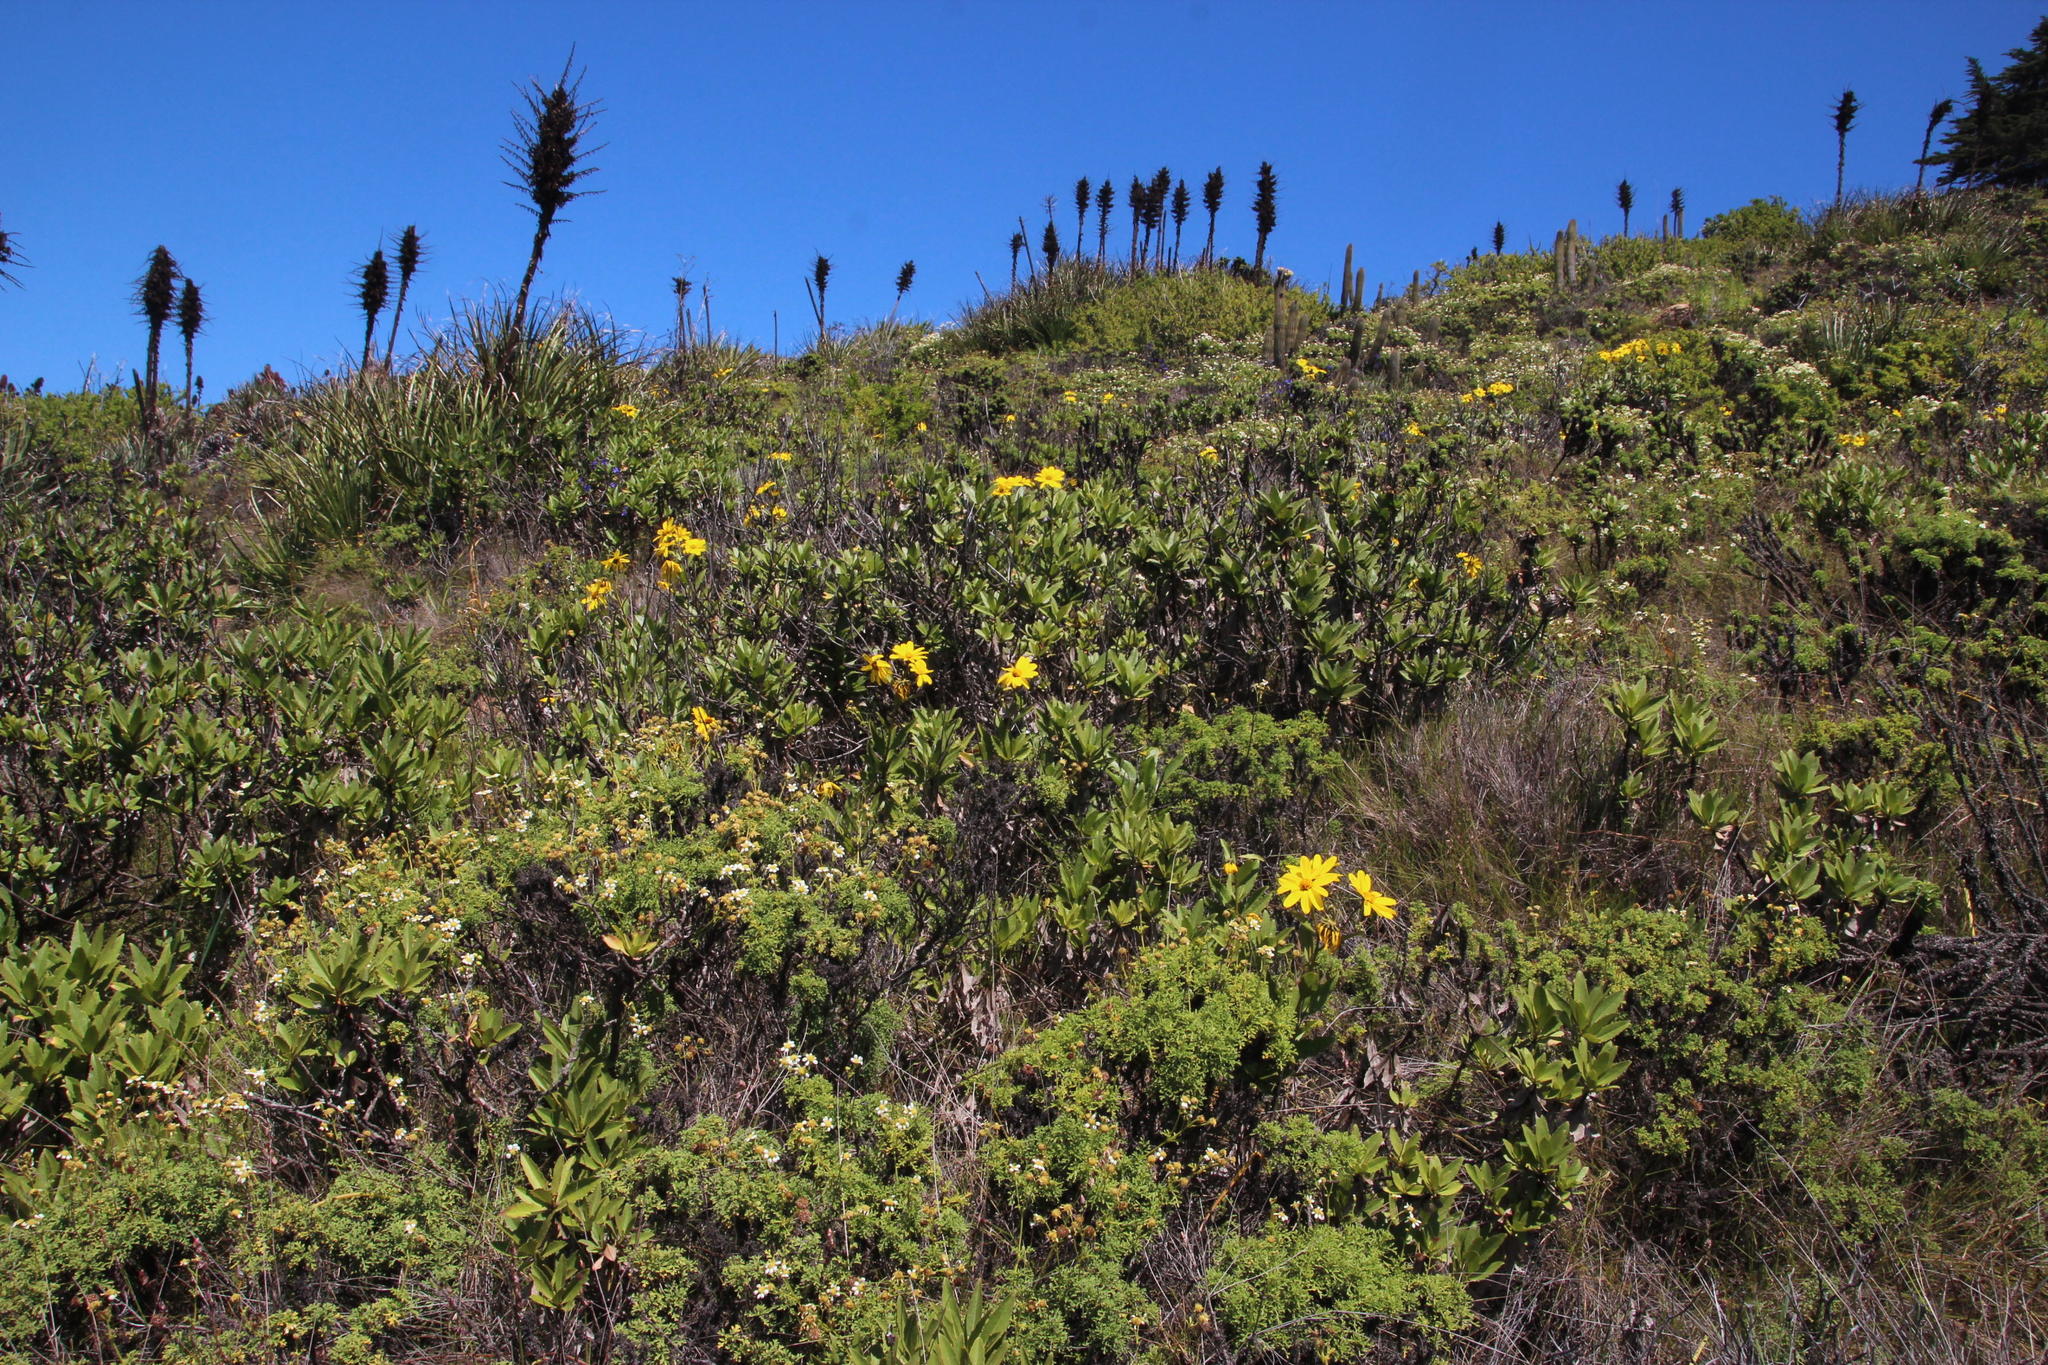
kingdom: Plantae
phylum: Tracheophyta
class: Magnoliopsida
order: Asterales
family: Asteraceae
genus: Flourensia
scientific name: Flourensia thurifera
